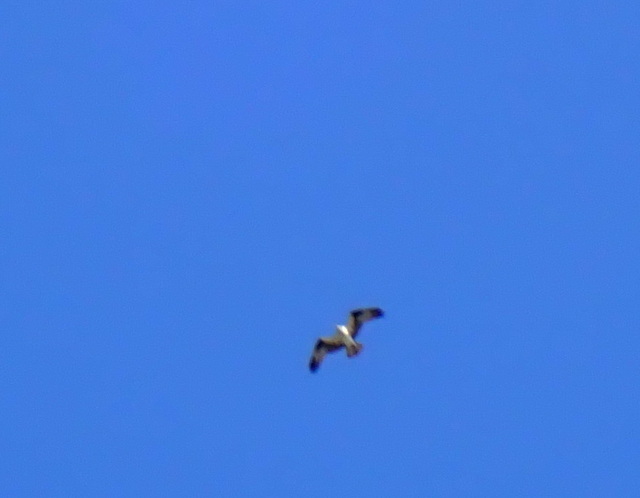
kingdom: Animalia
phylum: Chordata
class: Aves
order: Accipitriformes
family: Pandionidae
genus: Pandion
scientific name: Pandion haliaetus
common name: Osprey
